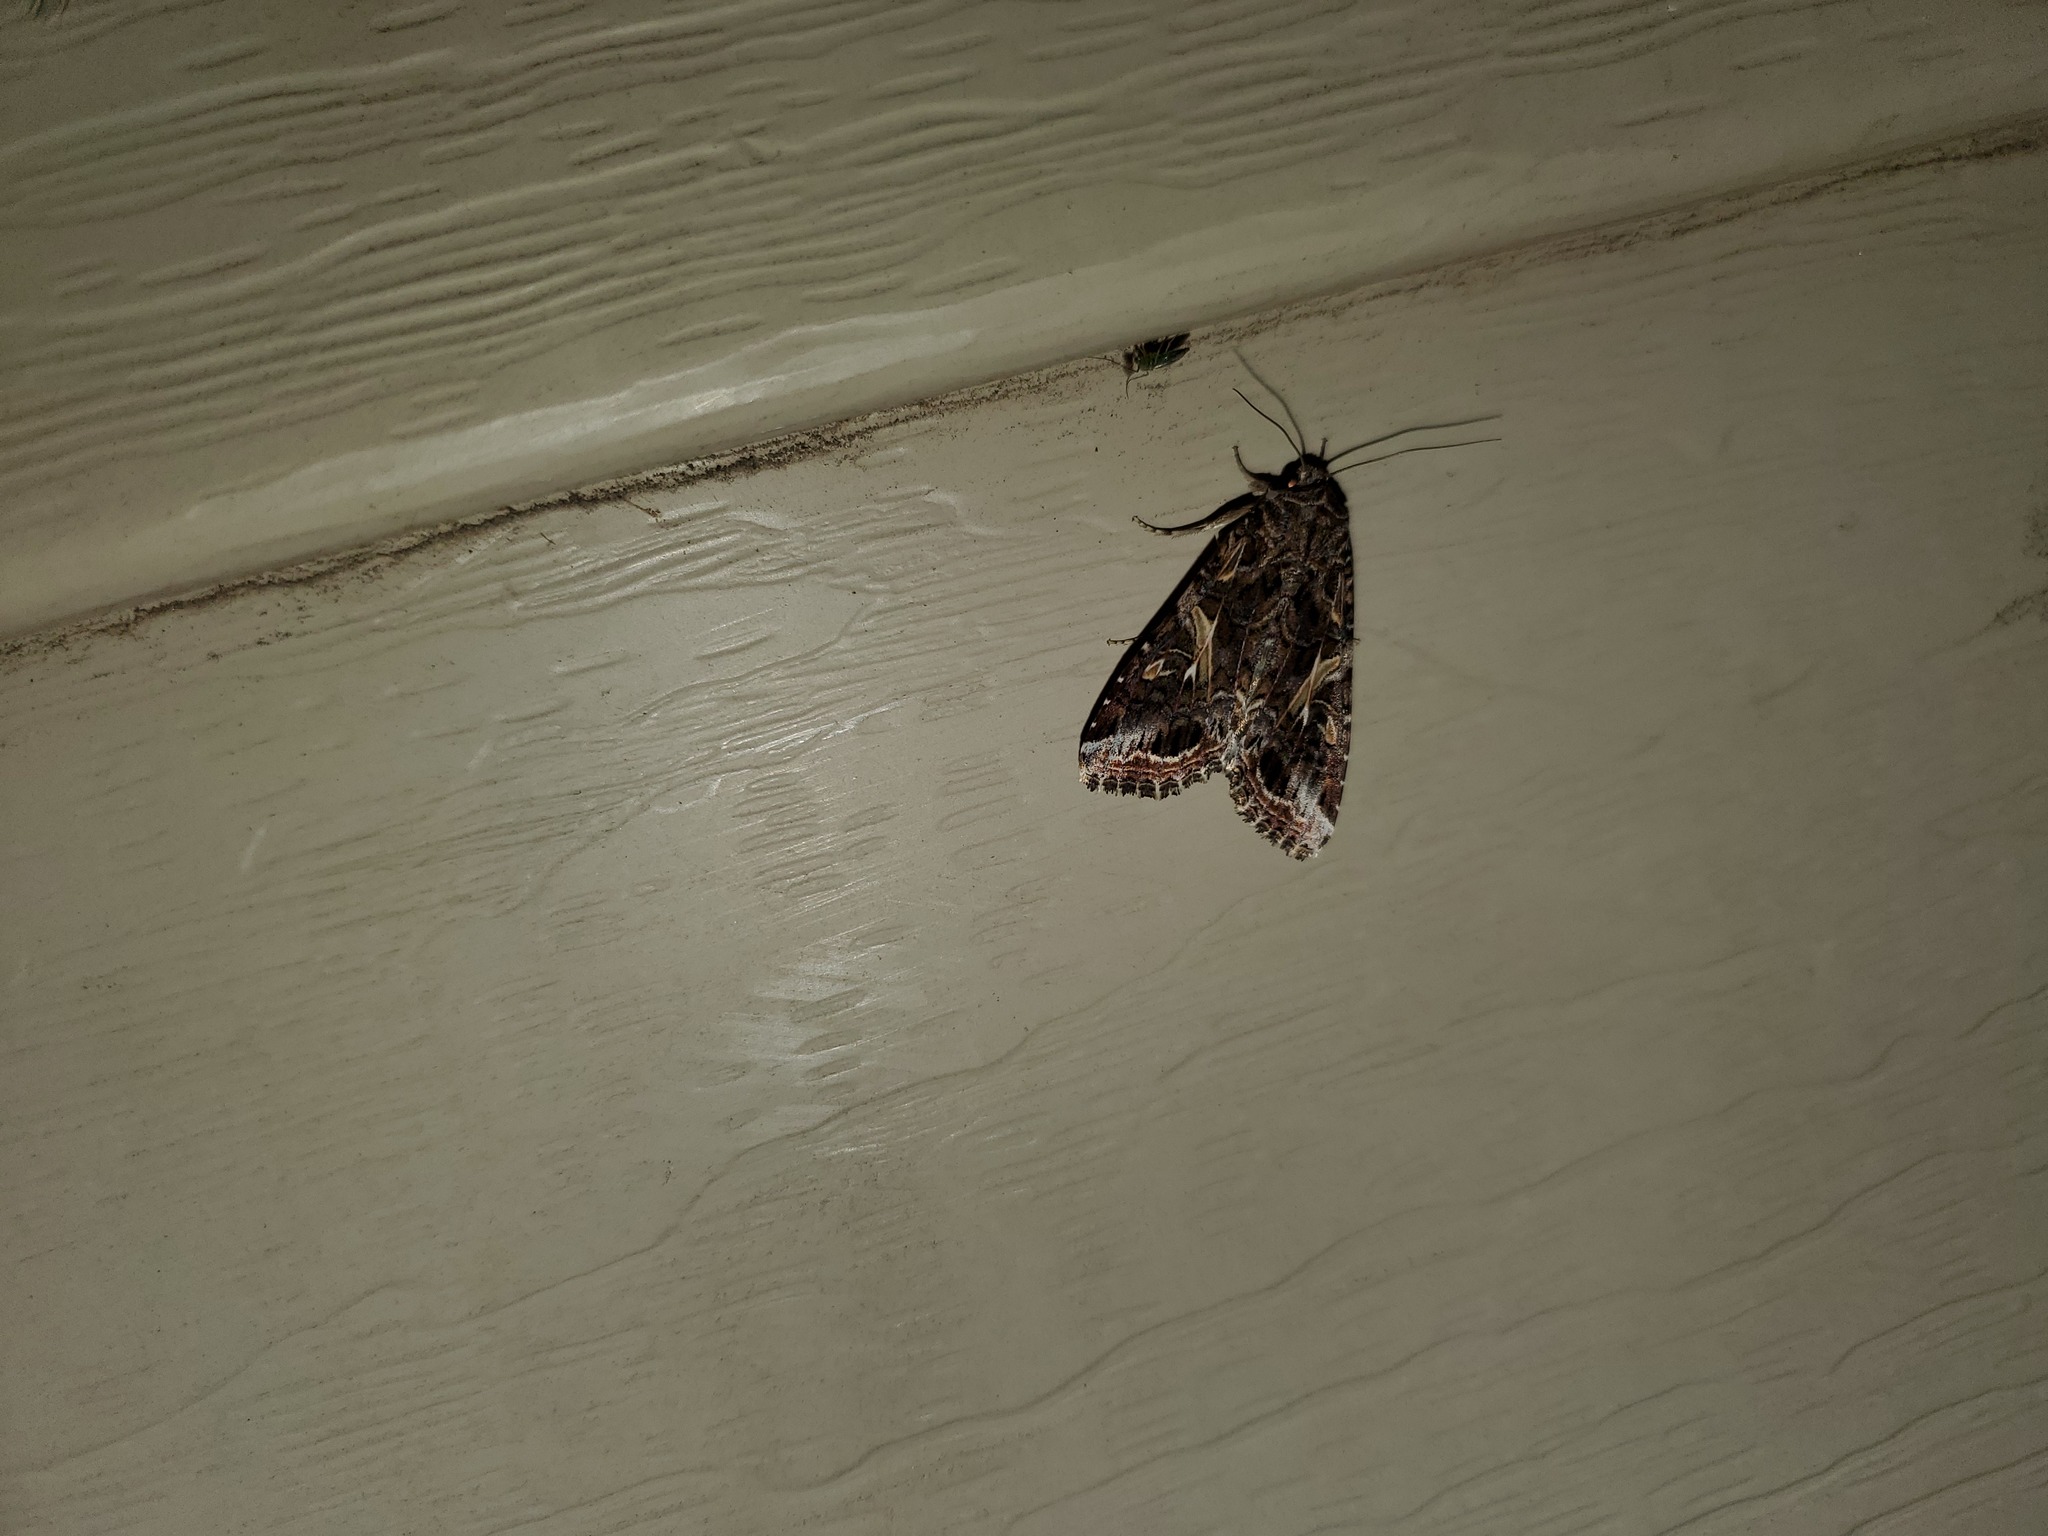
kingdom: Animalia
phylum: Arthropoda
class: Insecta
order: Lepidoptera
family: Noctuidae
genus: Spodoptera
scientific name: Spodoptera ornithogalli
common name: Yellow-striped armyworm
